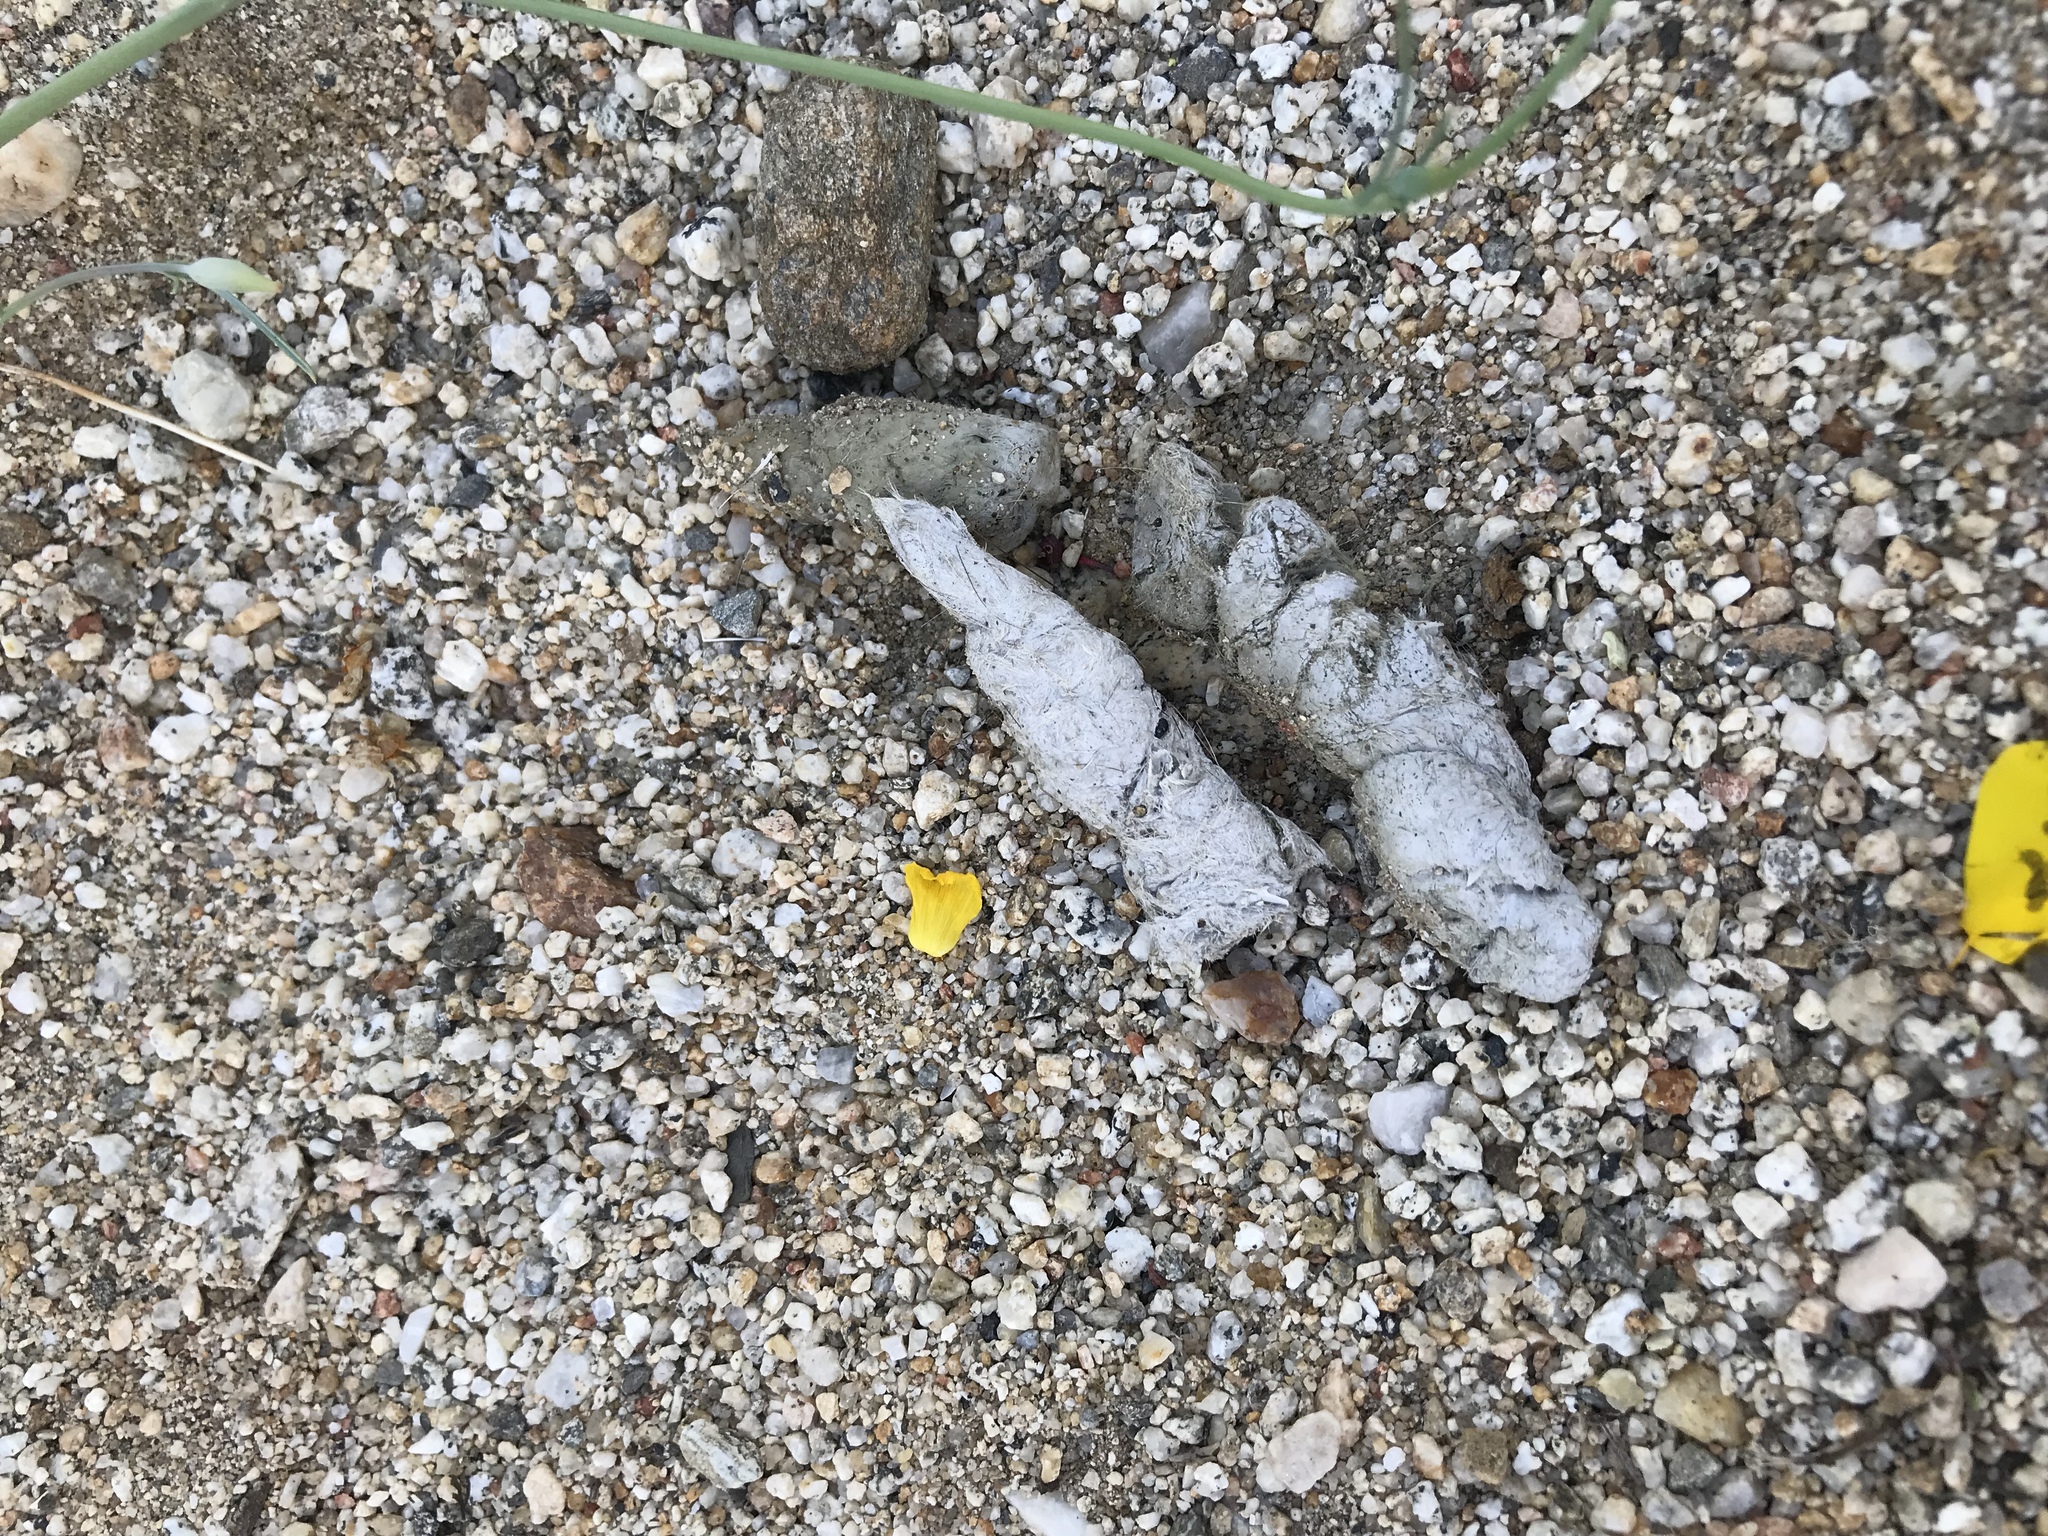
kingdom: Animalia
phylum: Chordata
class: Mammalia
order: Carnivora
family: Felidae
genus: Lynx
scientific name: Lynx rufus
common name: Bobcat
